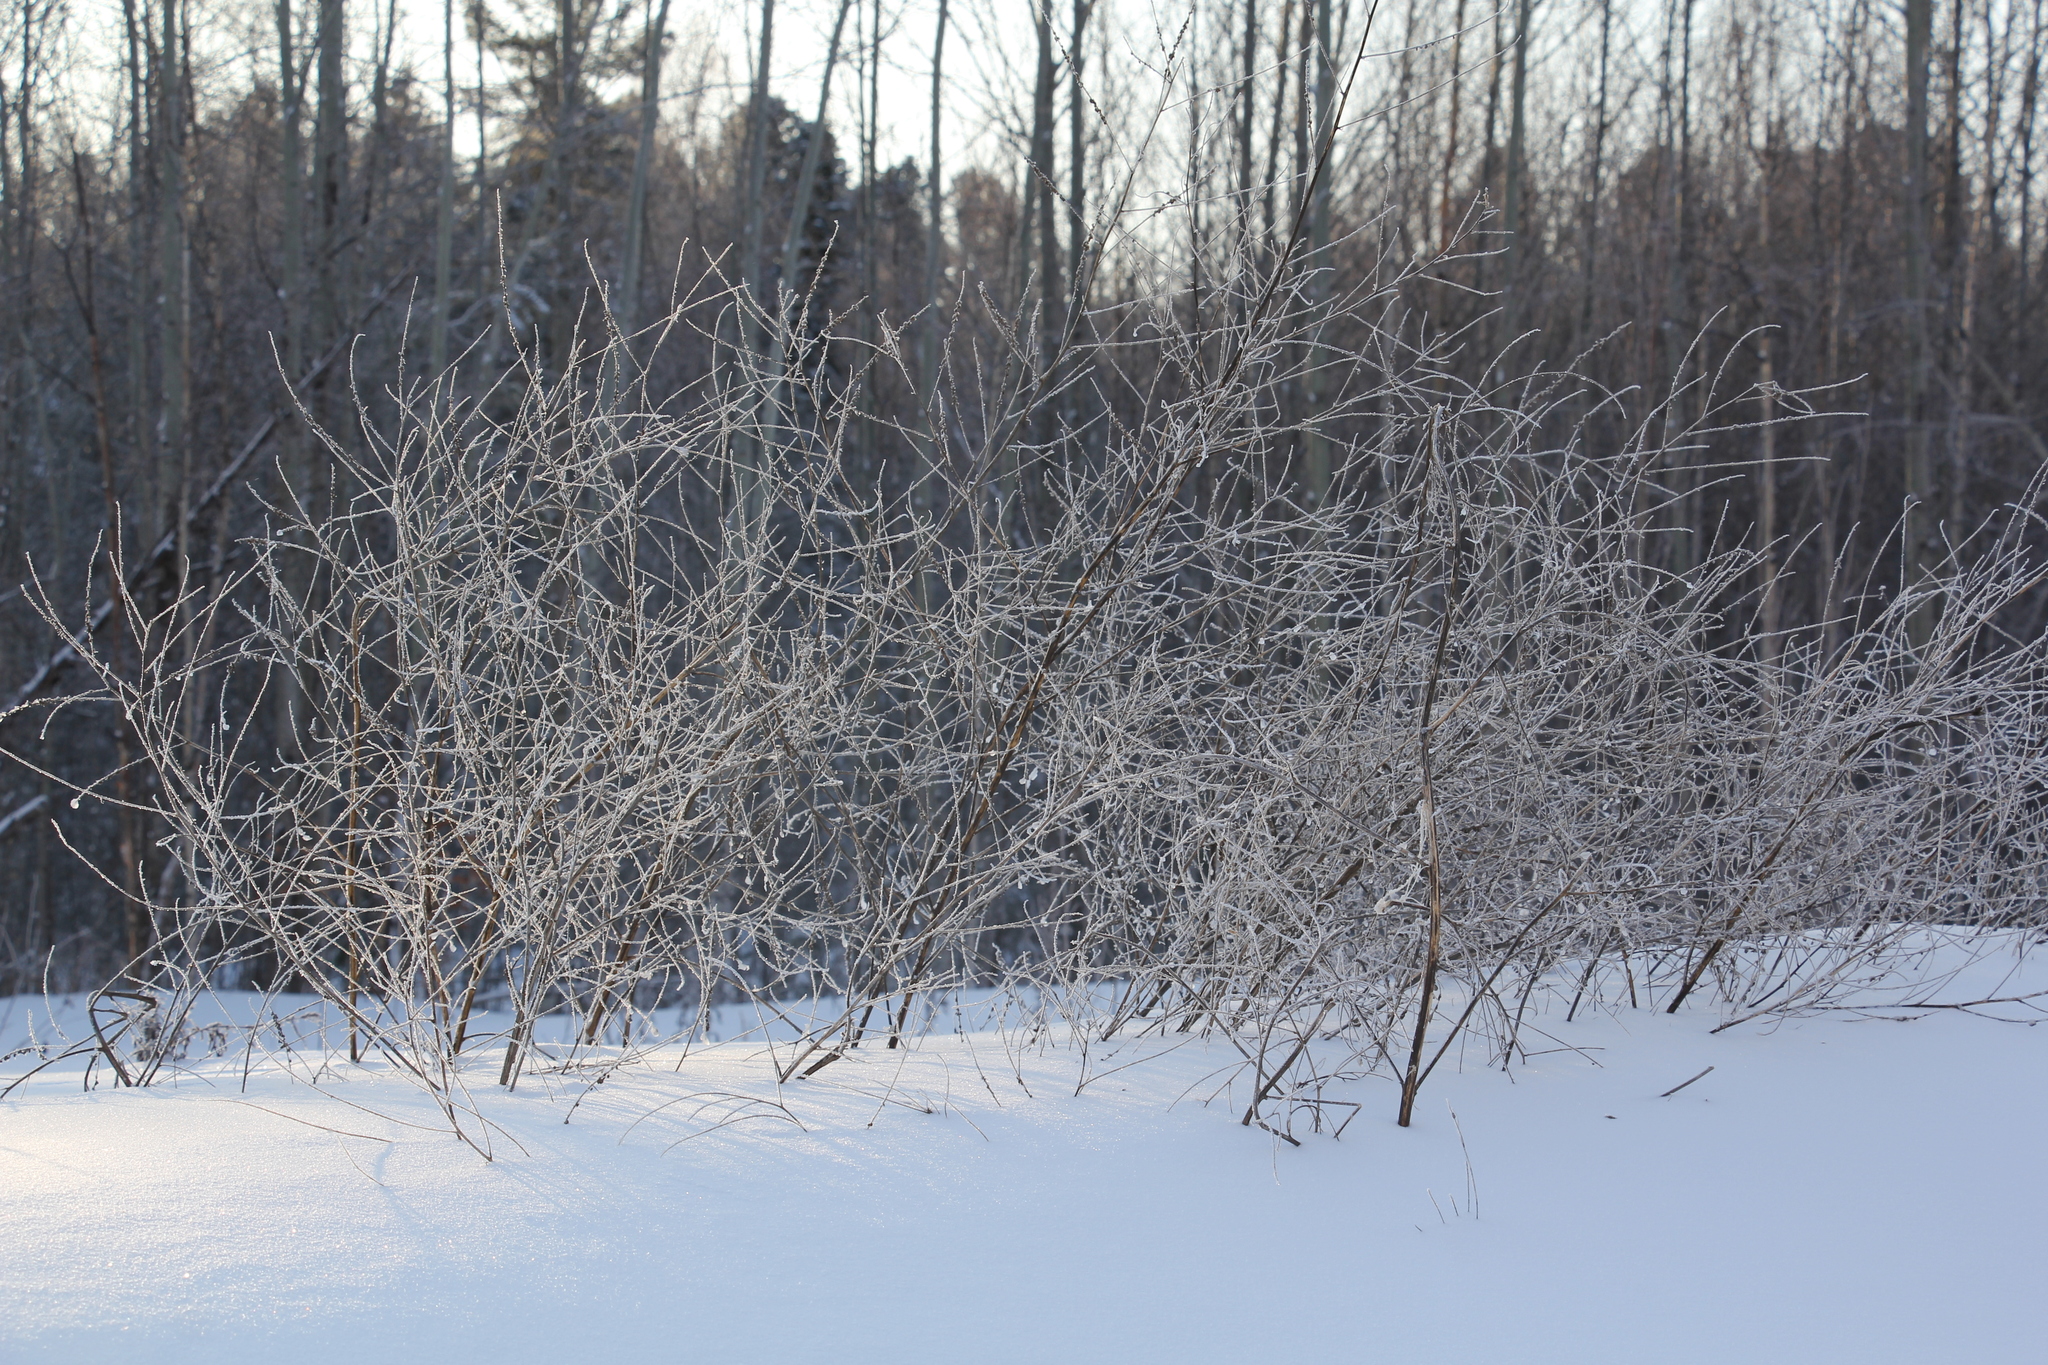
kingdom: Plantae
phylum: Tracheophyta
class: Magnoliopsida
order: Fabales
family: Fabaceae
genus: Melilotus
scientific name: Melilotus albus
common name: White melilot
